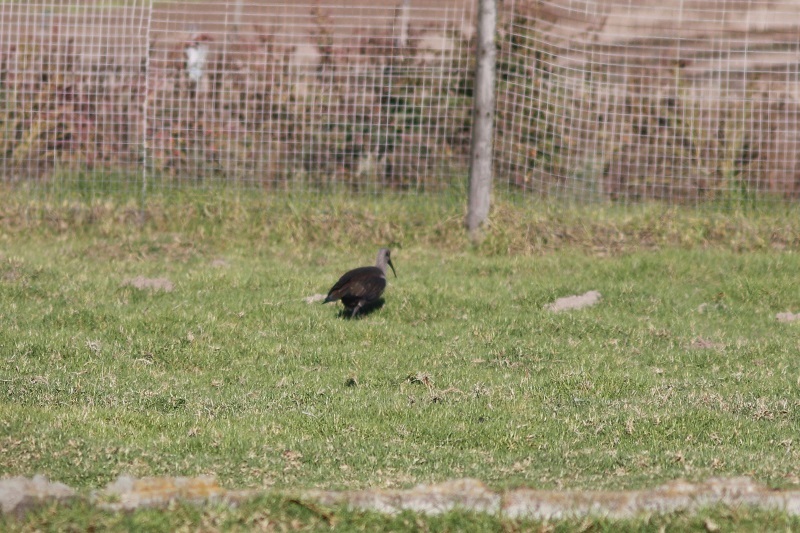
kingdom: Animalia
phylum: Chordata
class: Aves
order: Pelecaniformes
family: Threskiornithidae
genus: Bostrychia
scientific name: Bostrychia hagedash
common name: Hadada ibis
